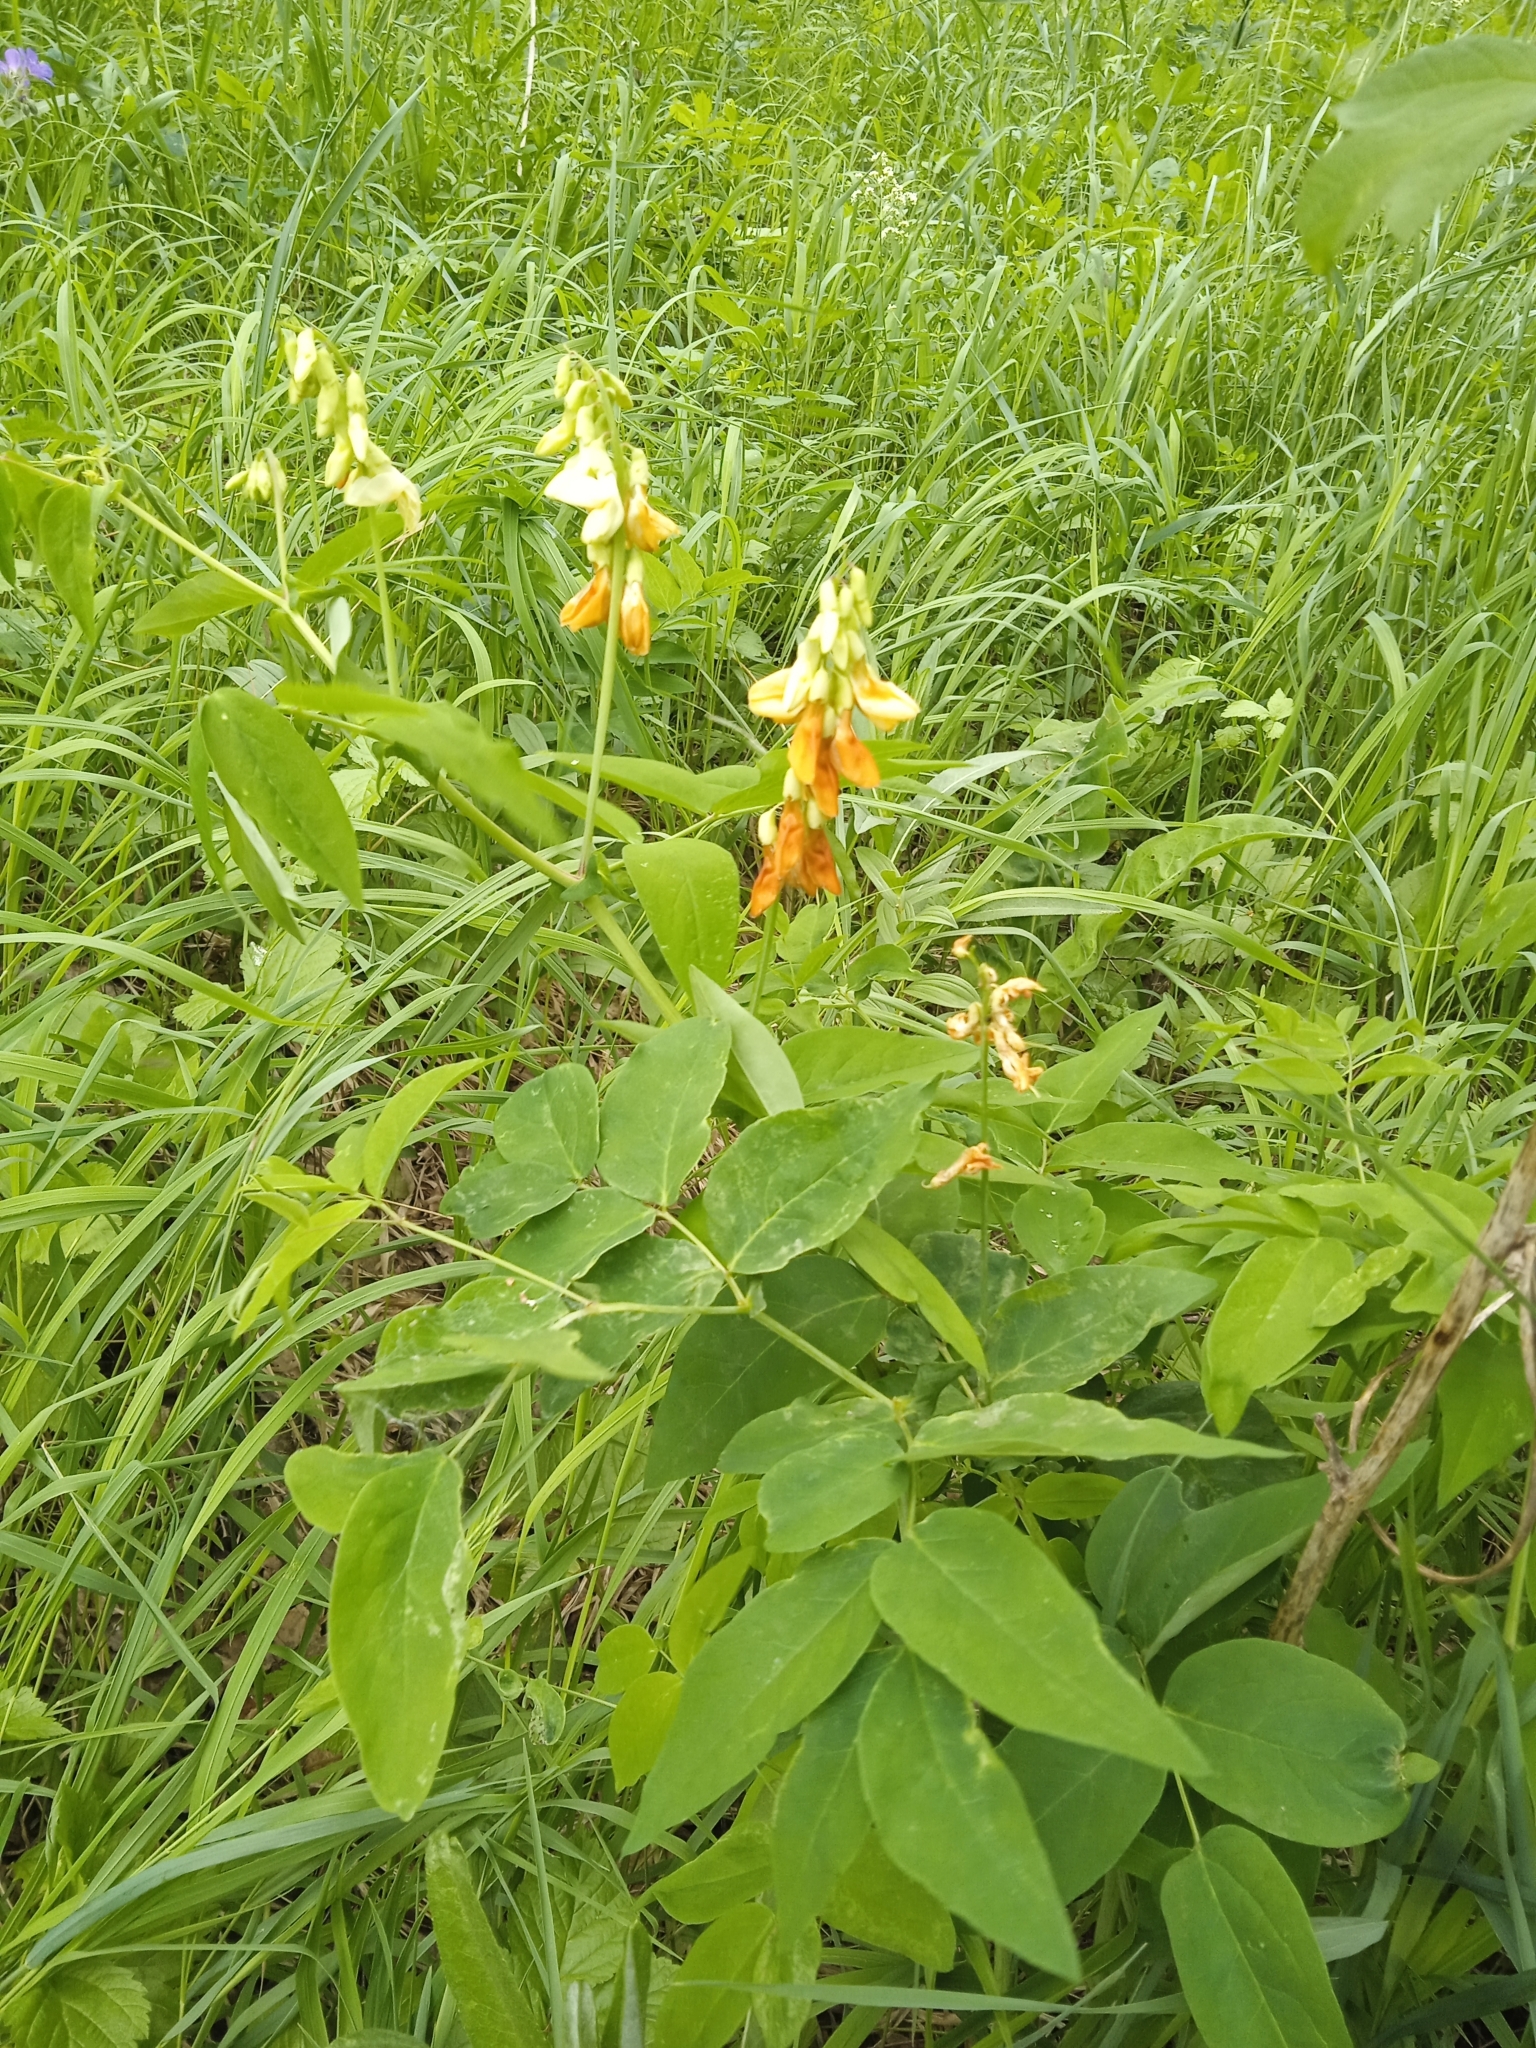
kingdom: Plantae
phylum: Tracheophyta
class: Magnoliopsida
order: Fabales
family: Fabaceae
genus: Lathyrus
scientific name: Lathyrus gmelinii
